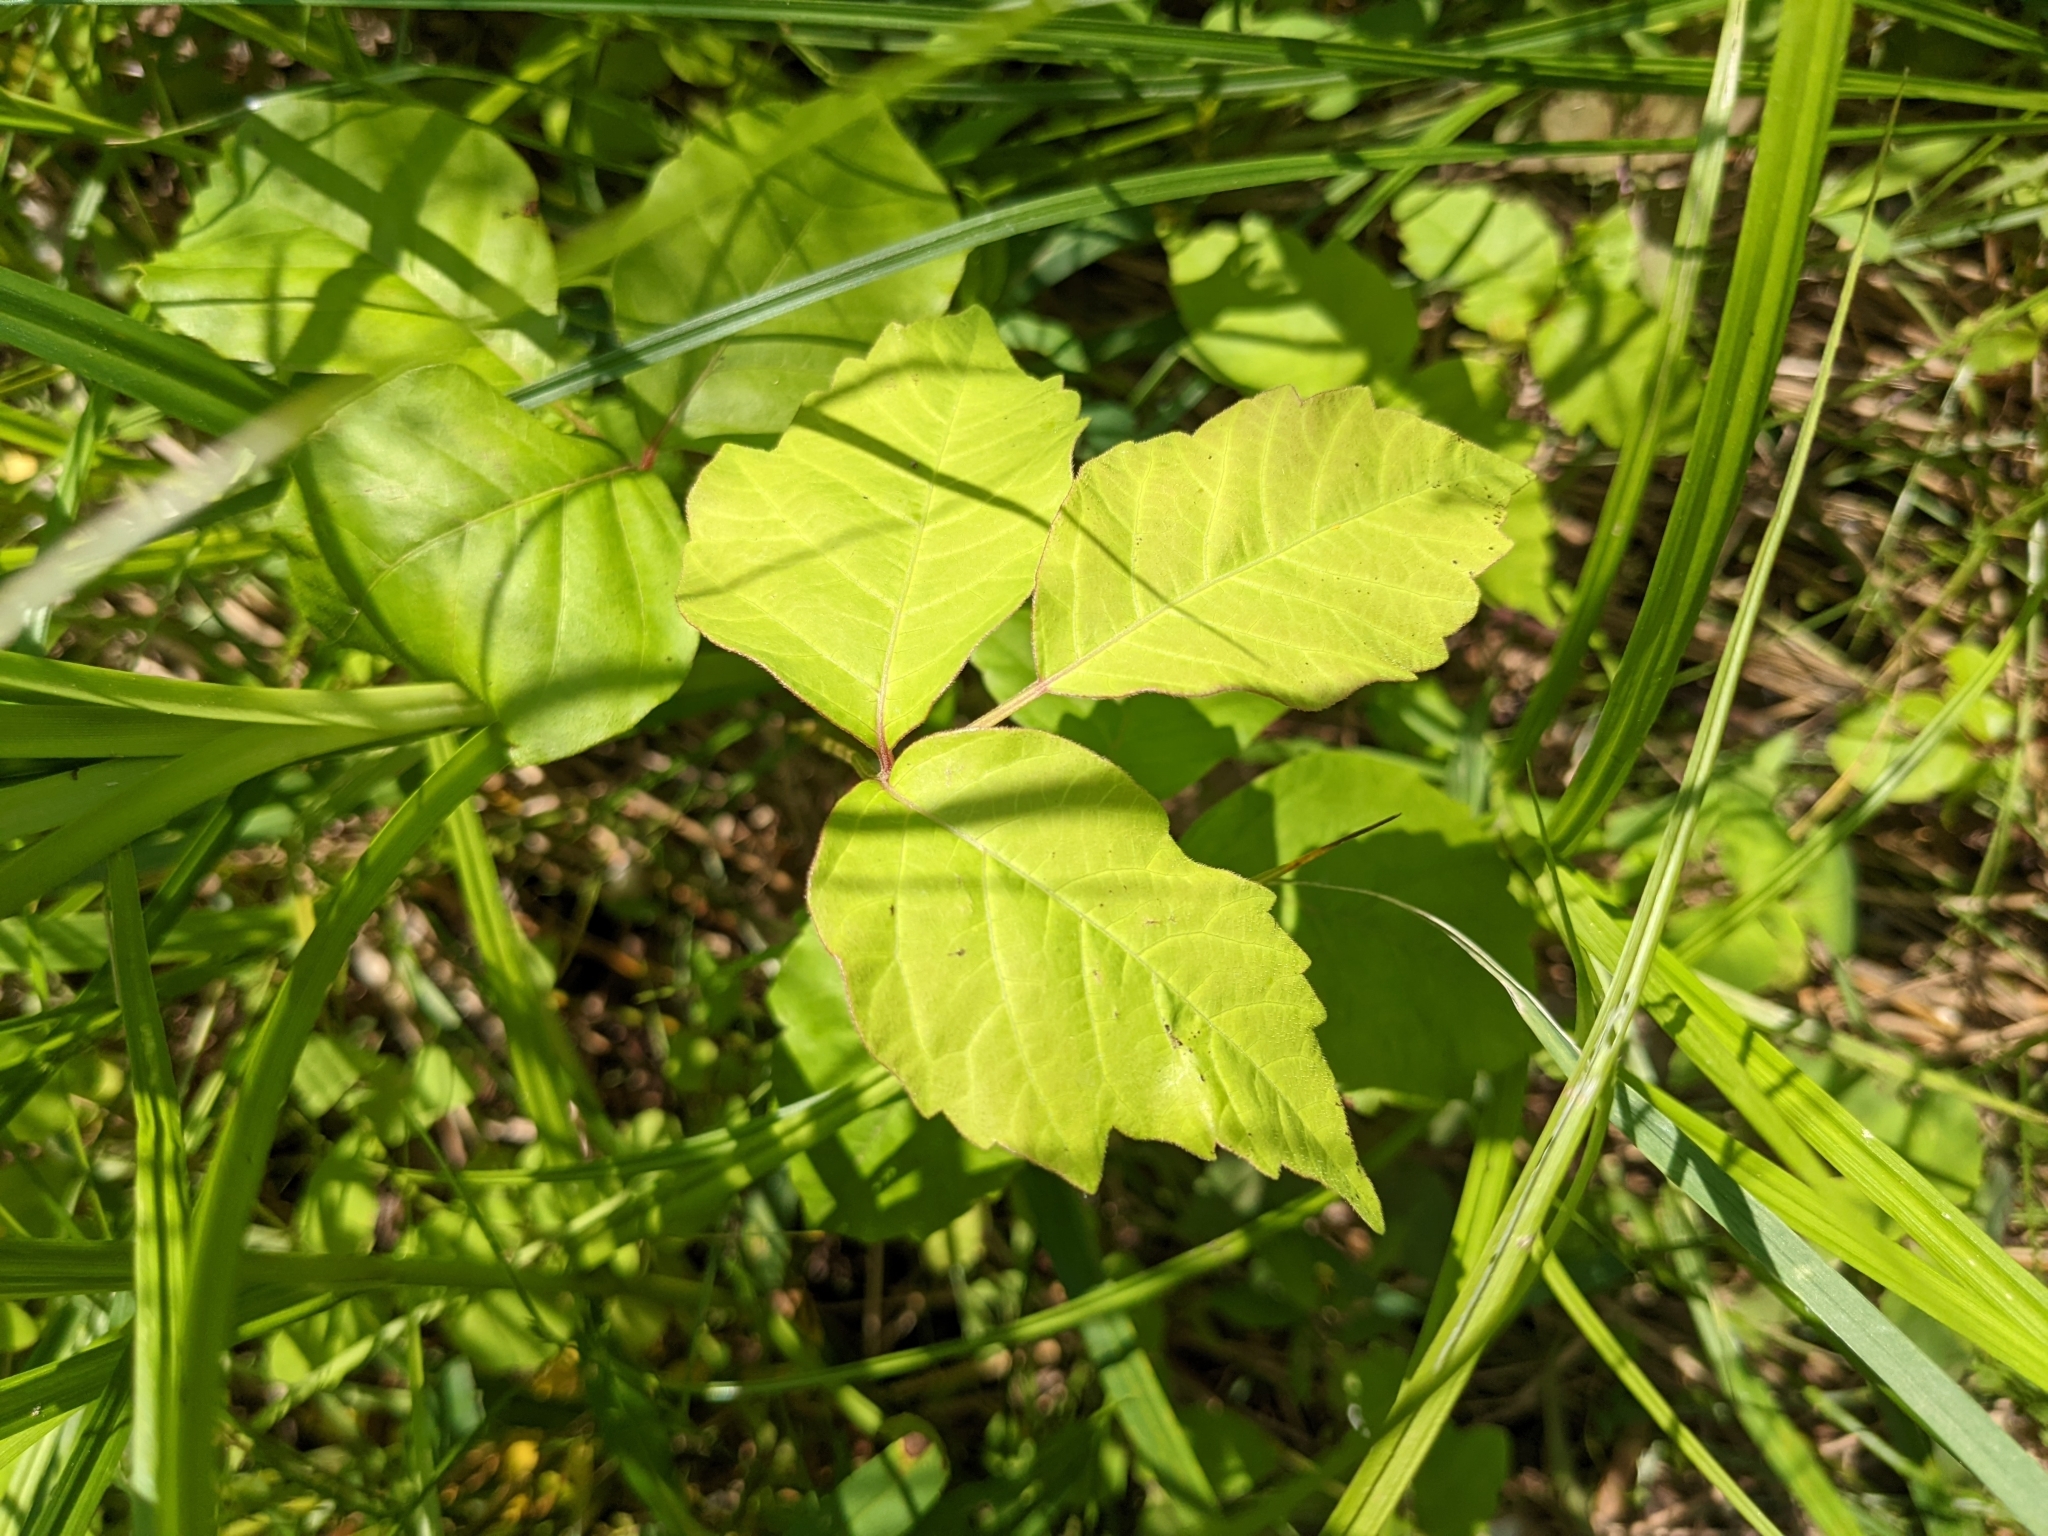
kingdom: Plantae
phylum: Tracheophyta
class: Magnoliopsida
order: Sapindales
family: Anacardiaceae
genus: Toxicodendron
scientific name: Toxicodendron radicans
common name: Poison ivy
